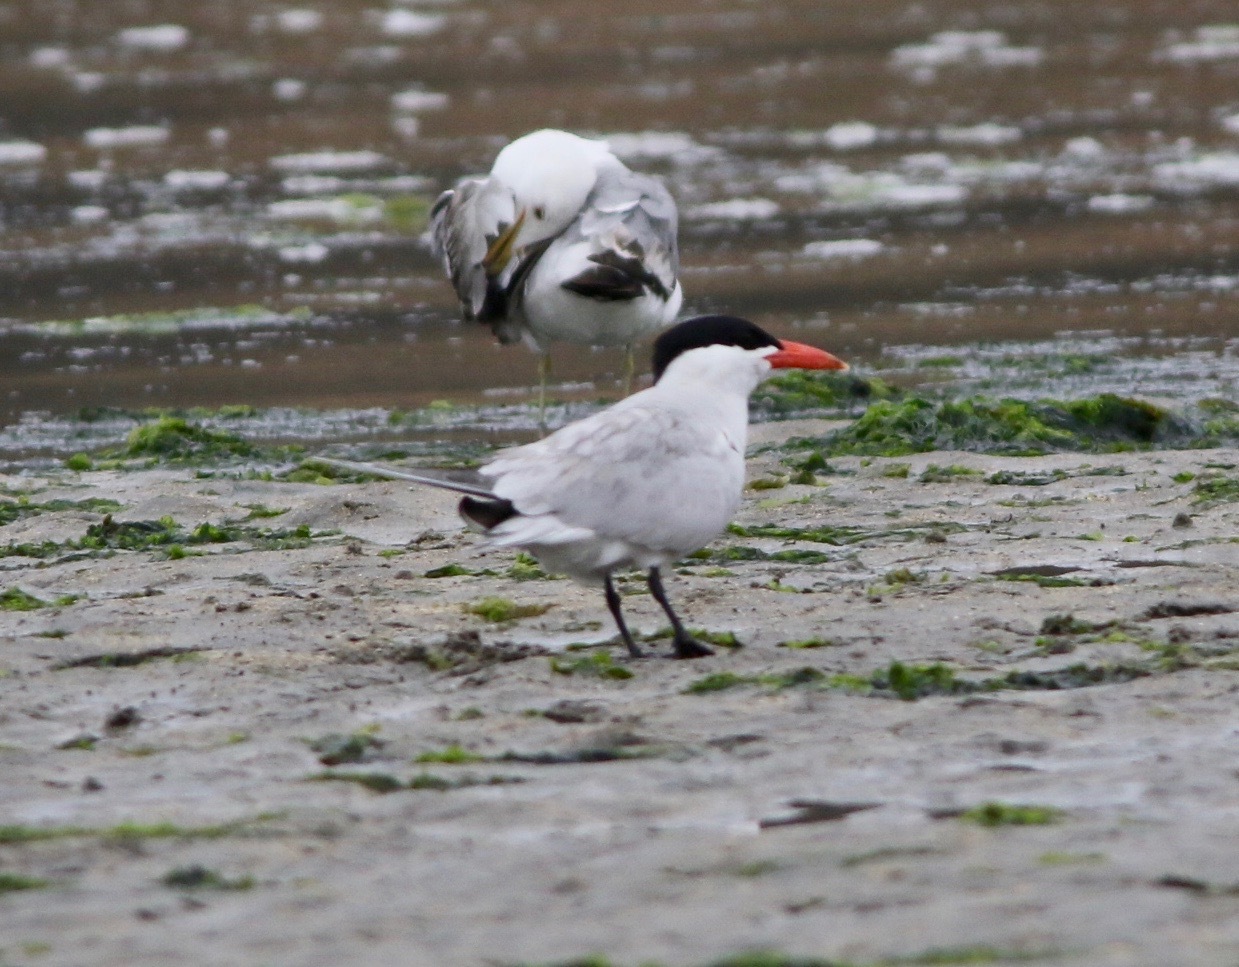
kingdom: Animalia
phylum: Chordata
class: Aves
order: Charadriiformes
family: Laridae
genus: Hydroprogne
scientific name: Hydroprogne caspia
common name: Caspian tern
